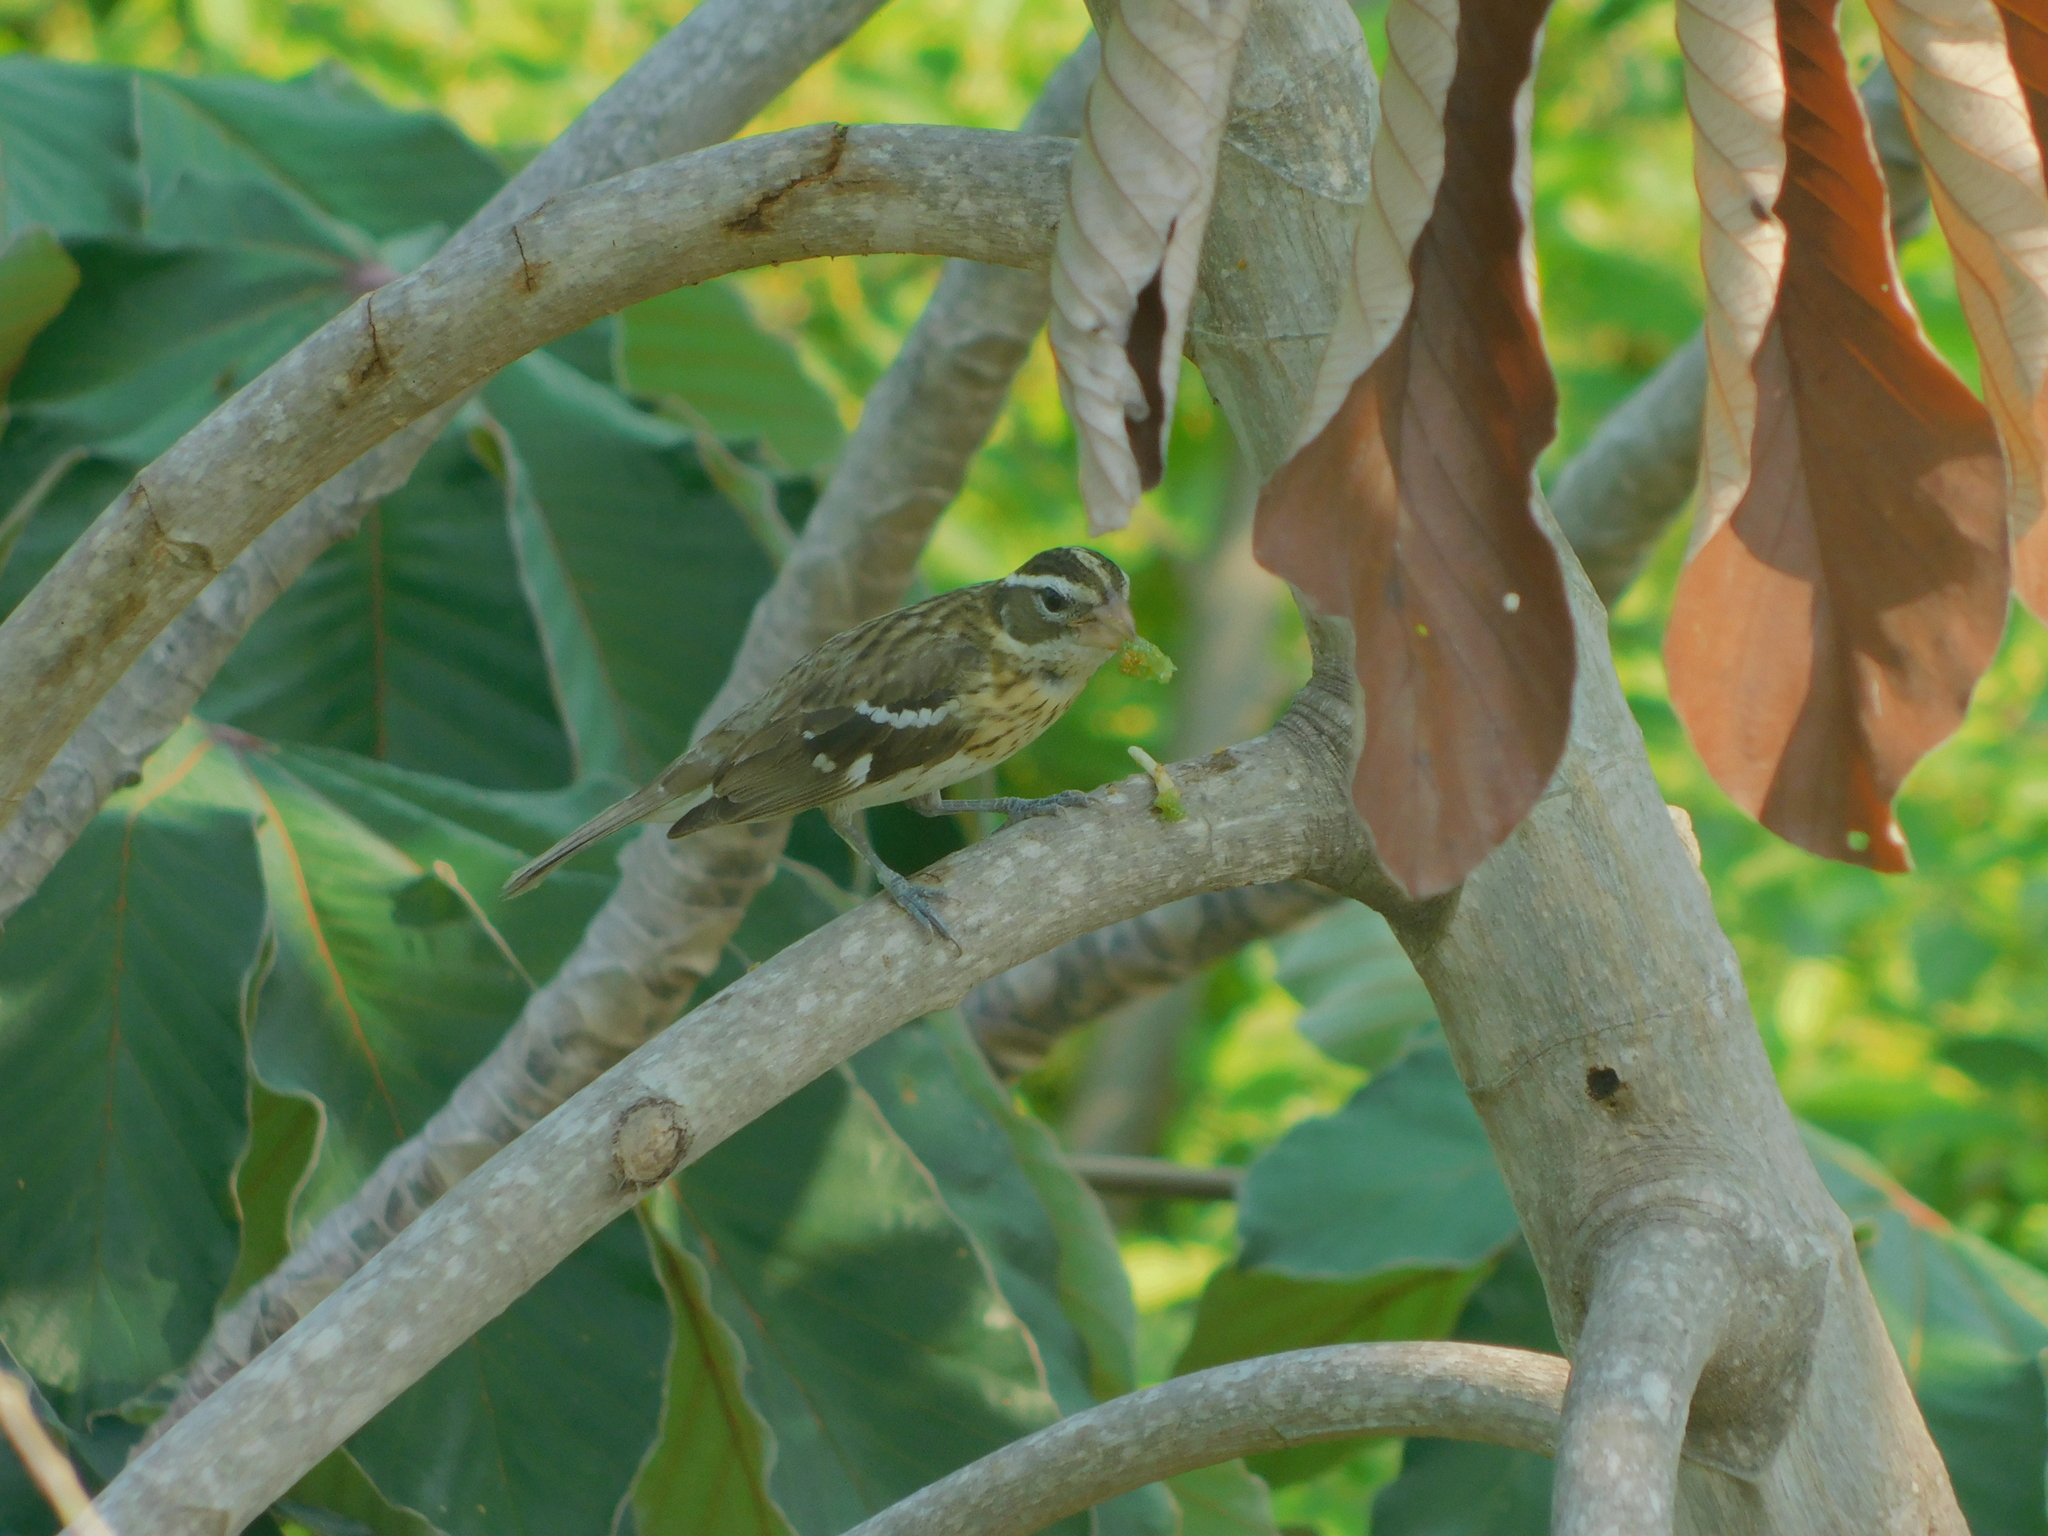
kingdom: Animalia
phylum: Chordata
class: Aves
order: Passeriformes
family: Cardinalidae
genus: Pheucticus
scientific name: Pheucticus ludovicianus
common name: Rose-breasted grosbeak
